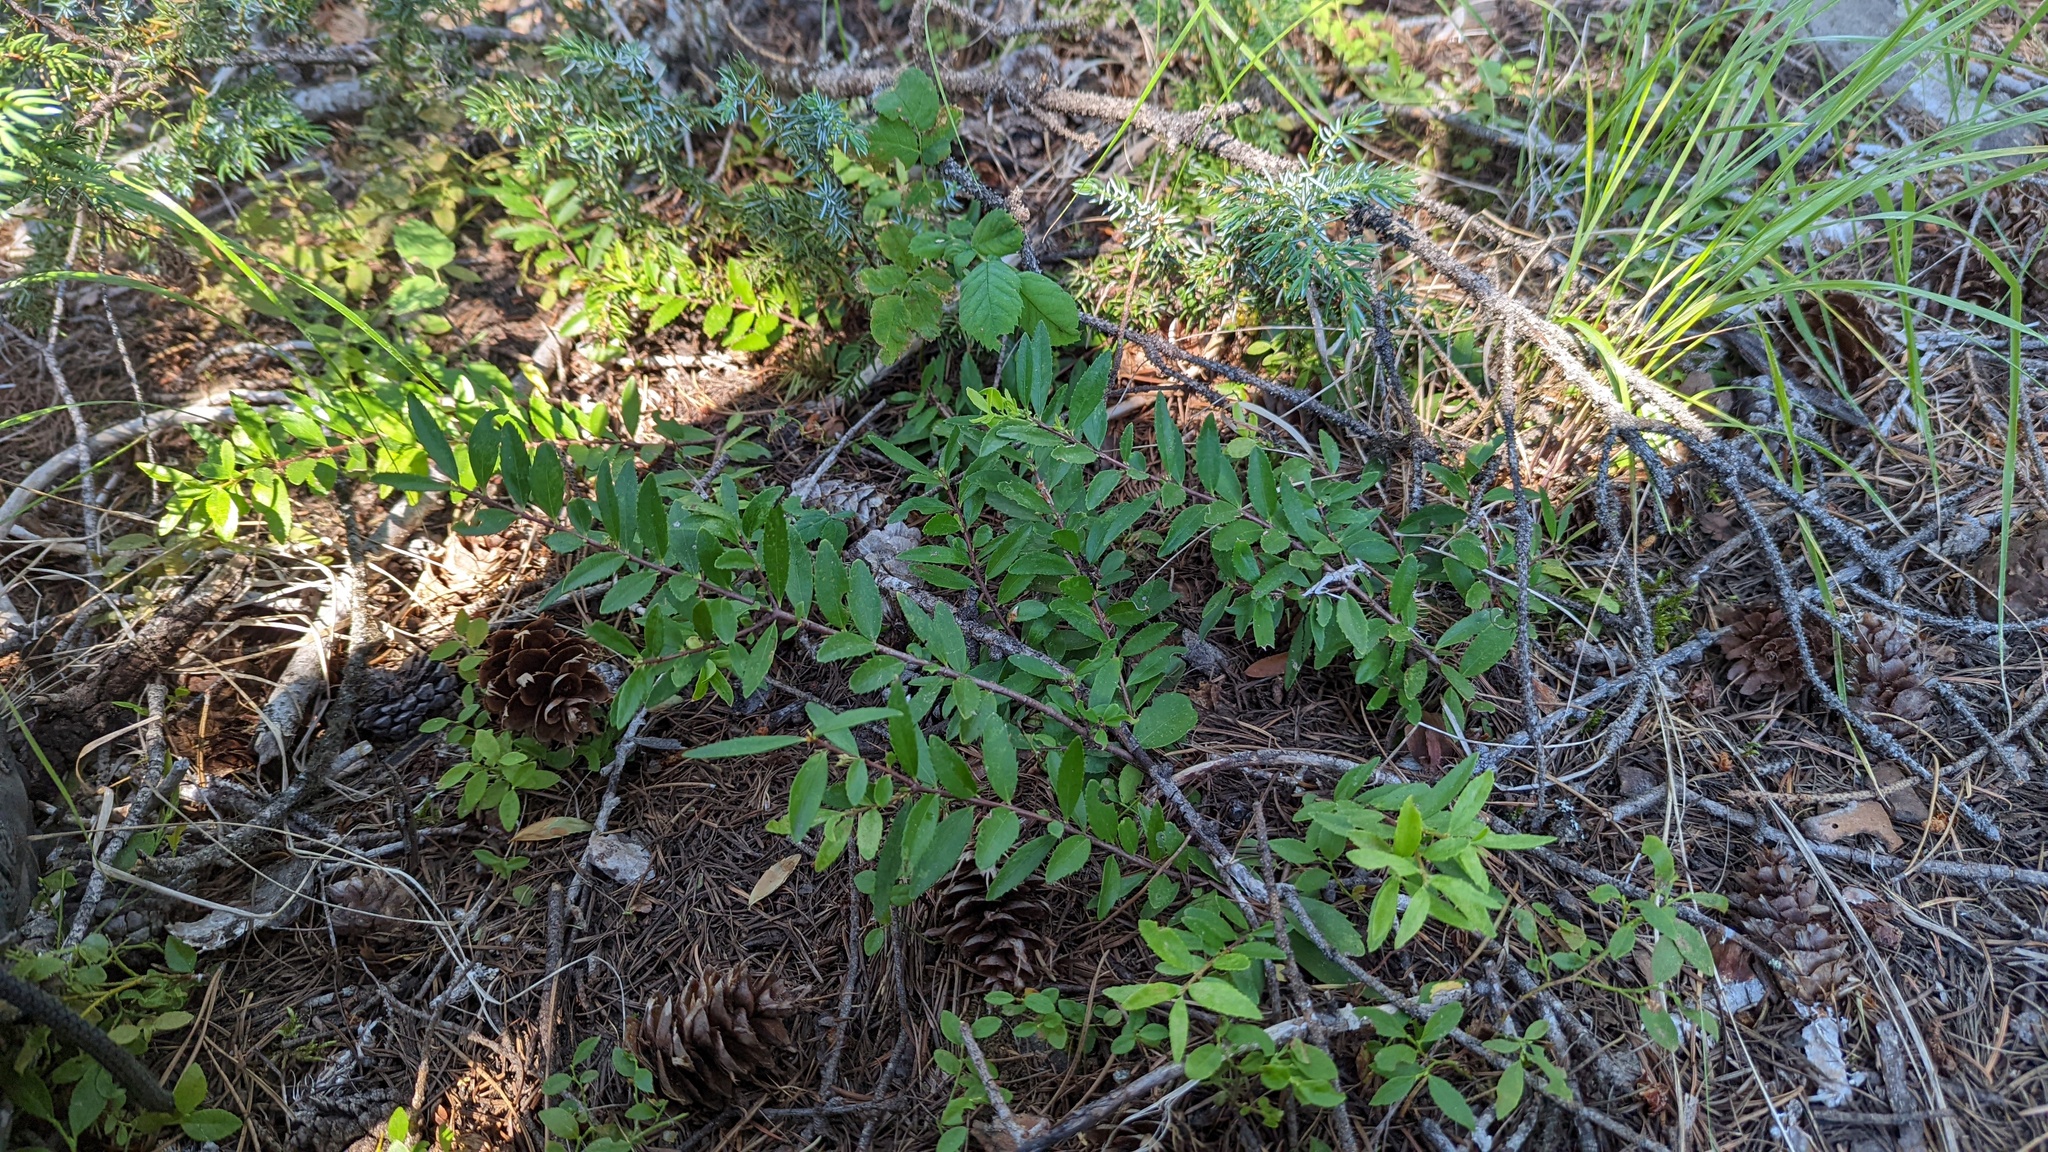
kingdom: Plantae
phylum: Tracheophyta
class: Magnoliopsida
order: Celastrales
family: Celastraceae
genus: Paxistima
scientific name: Paxistima myrsinites
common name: Mountain-lover
